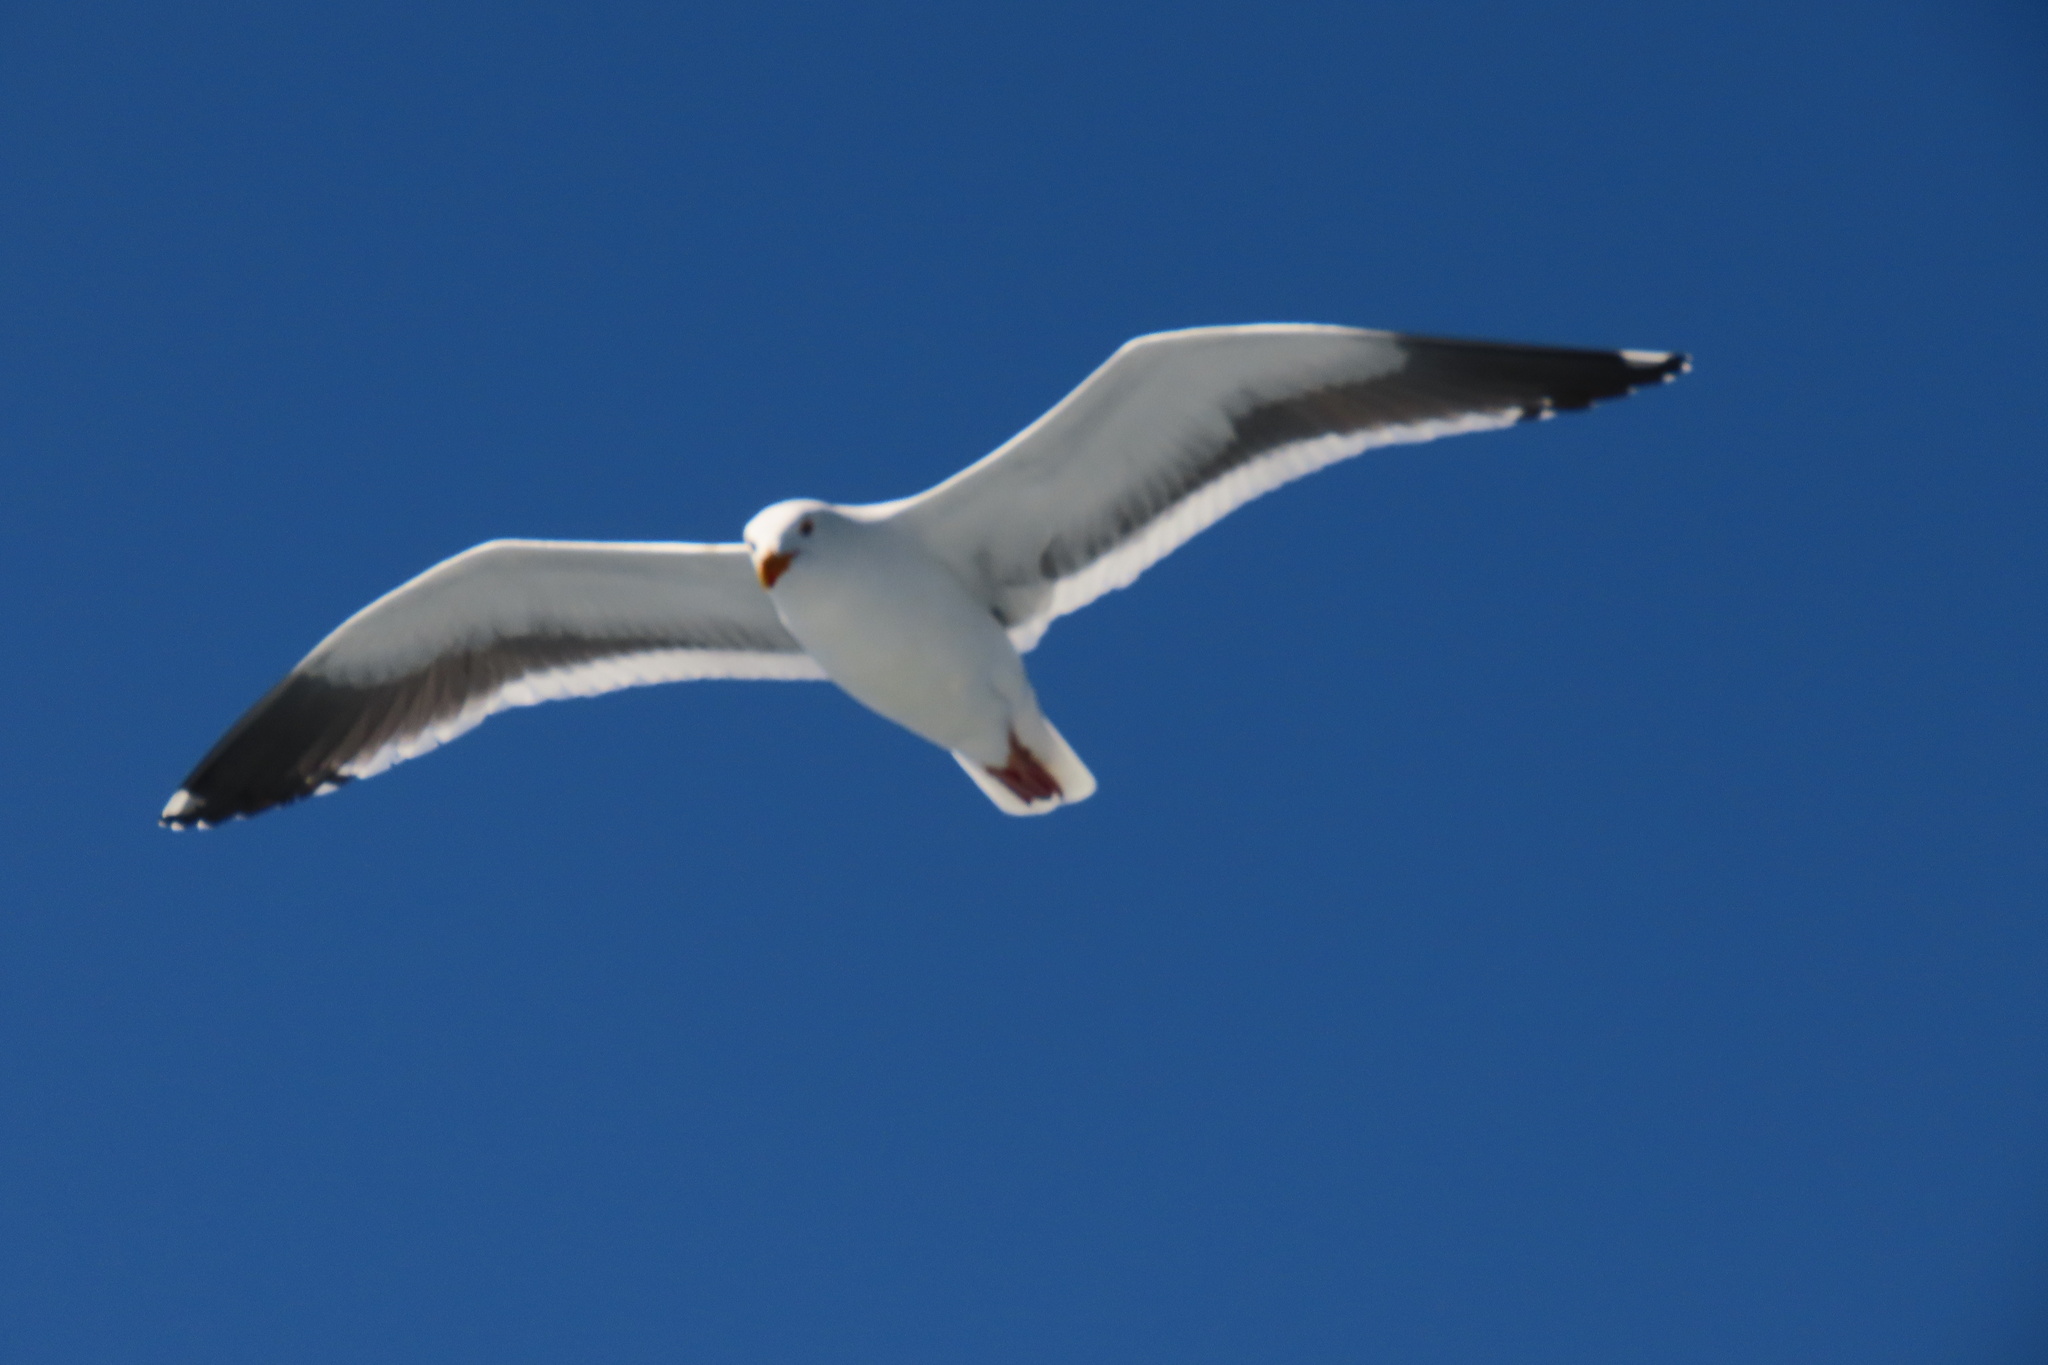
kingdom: Animalia
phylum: Chordata
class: Aves
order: Charadriiformes
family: Laridae
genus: Larus
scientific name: Larus occidentalis
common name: Western gull
